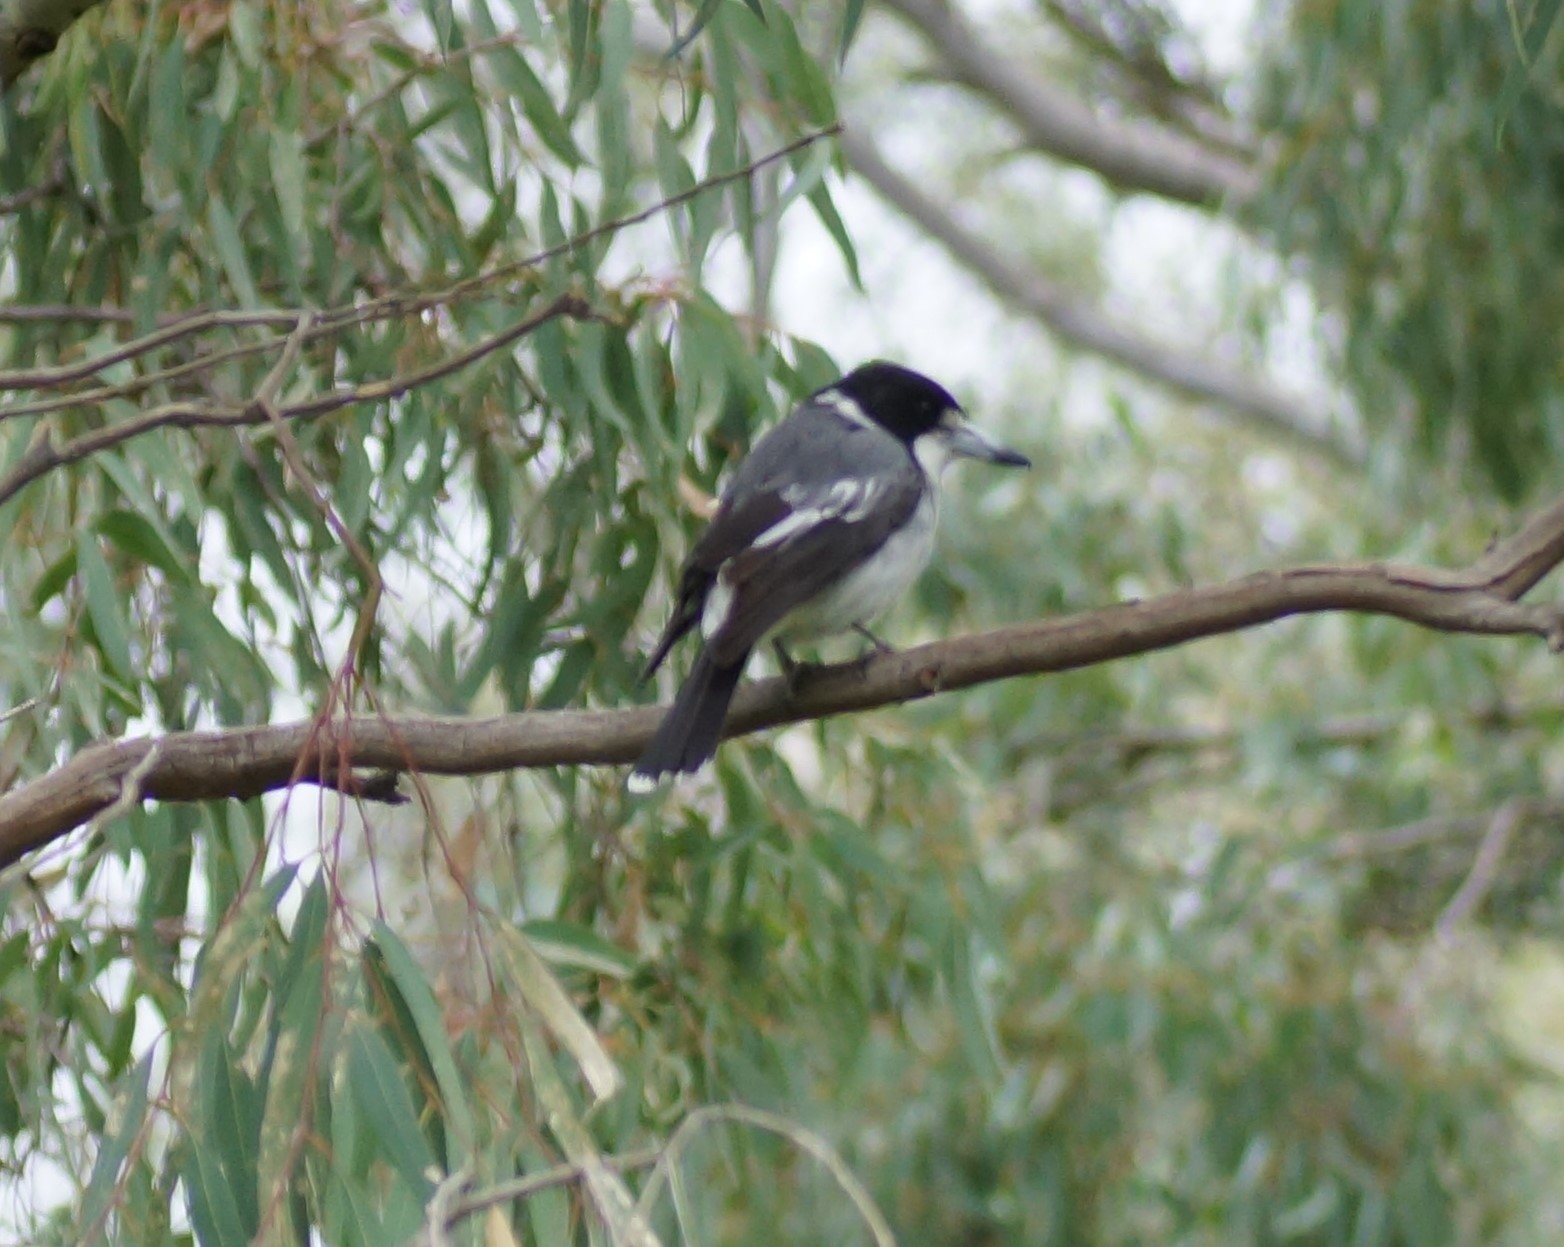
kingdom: Animalia
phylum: Chordata
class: Aves
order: Passeriformes
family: Cracticidae
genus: Cracticus
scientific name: Cracticus torquatus
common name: Grey butcherbird
